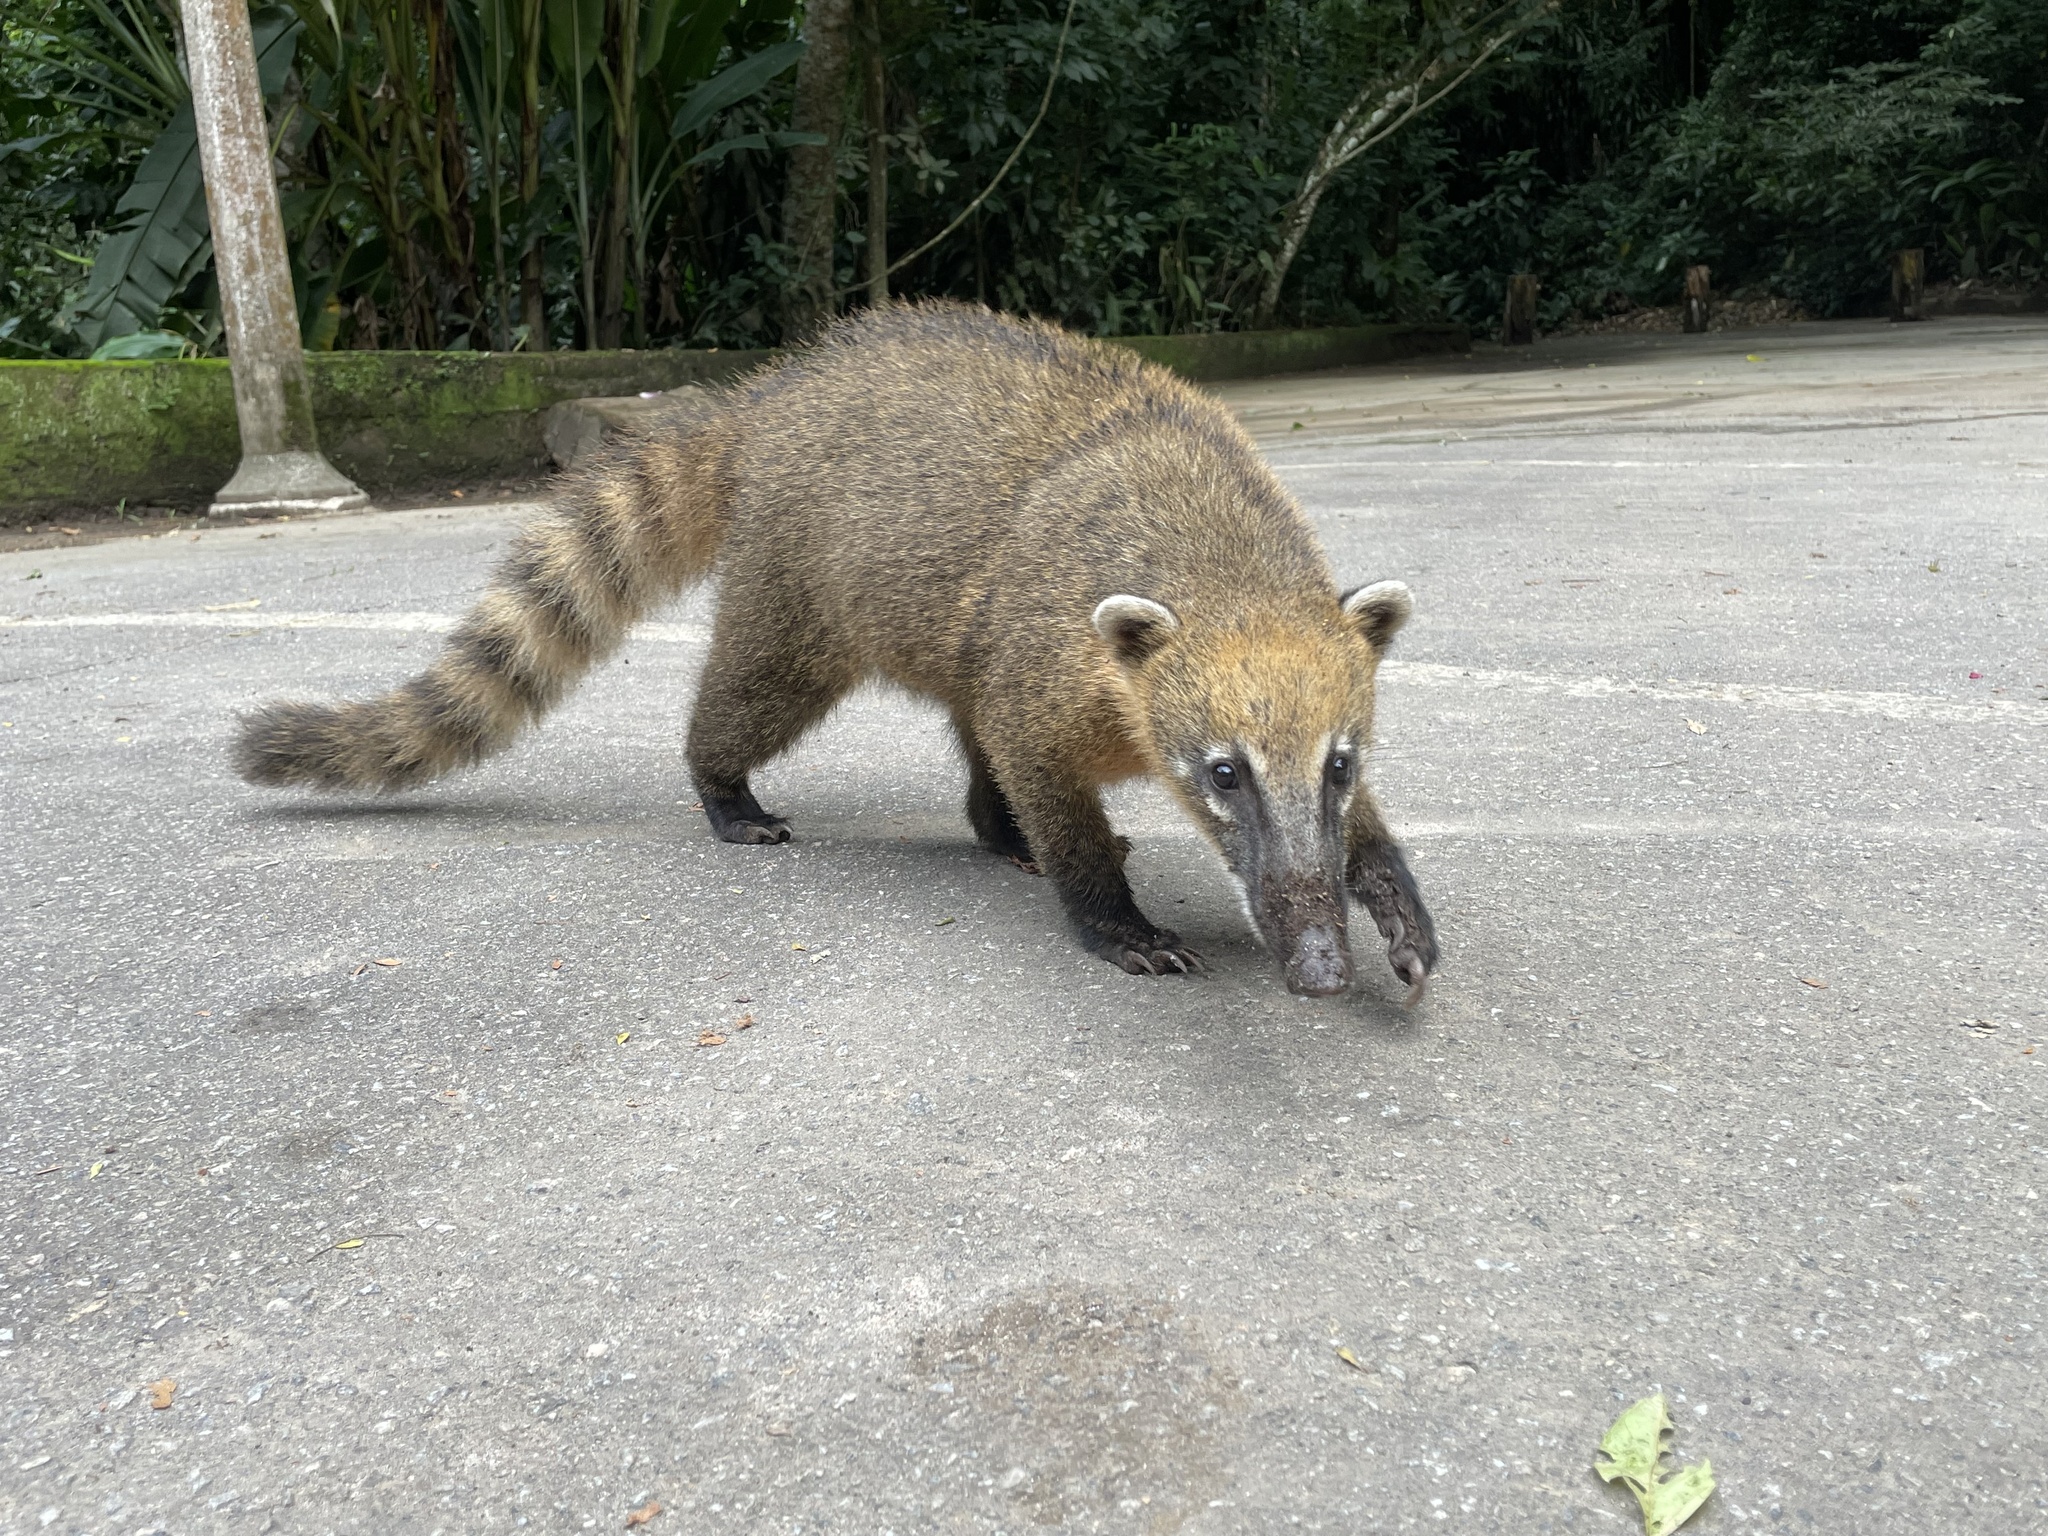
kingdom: Animalia
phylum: Chordata
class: Mammalia
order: Carnivora
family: Procyonidae
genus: Nasua
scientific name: Nasua nasua
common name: South american coati
